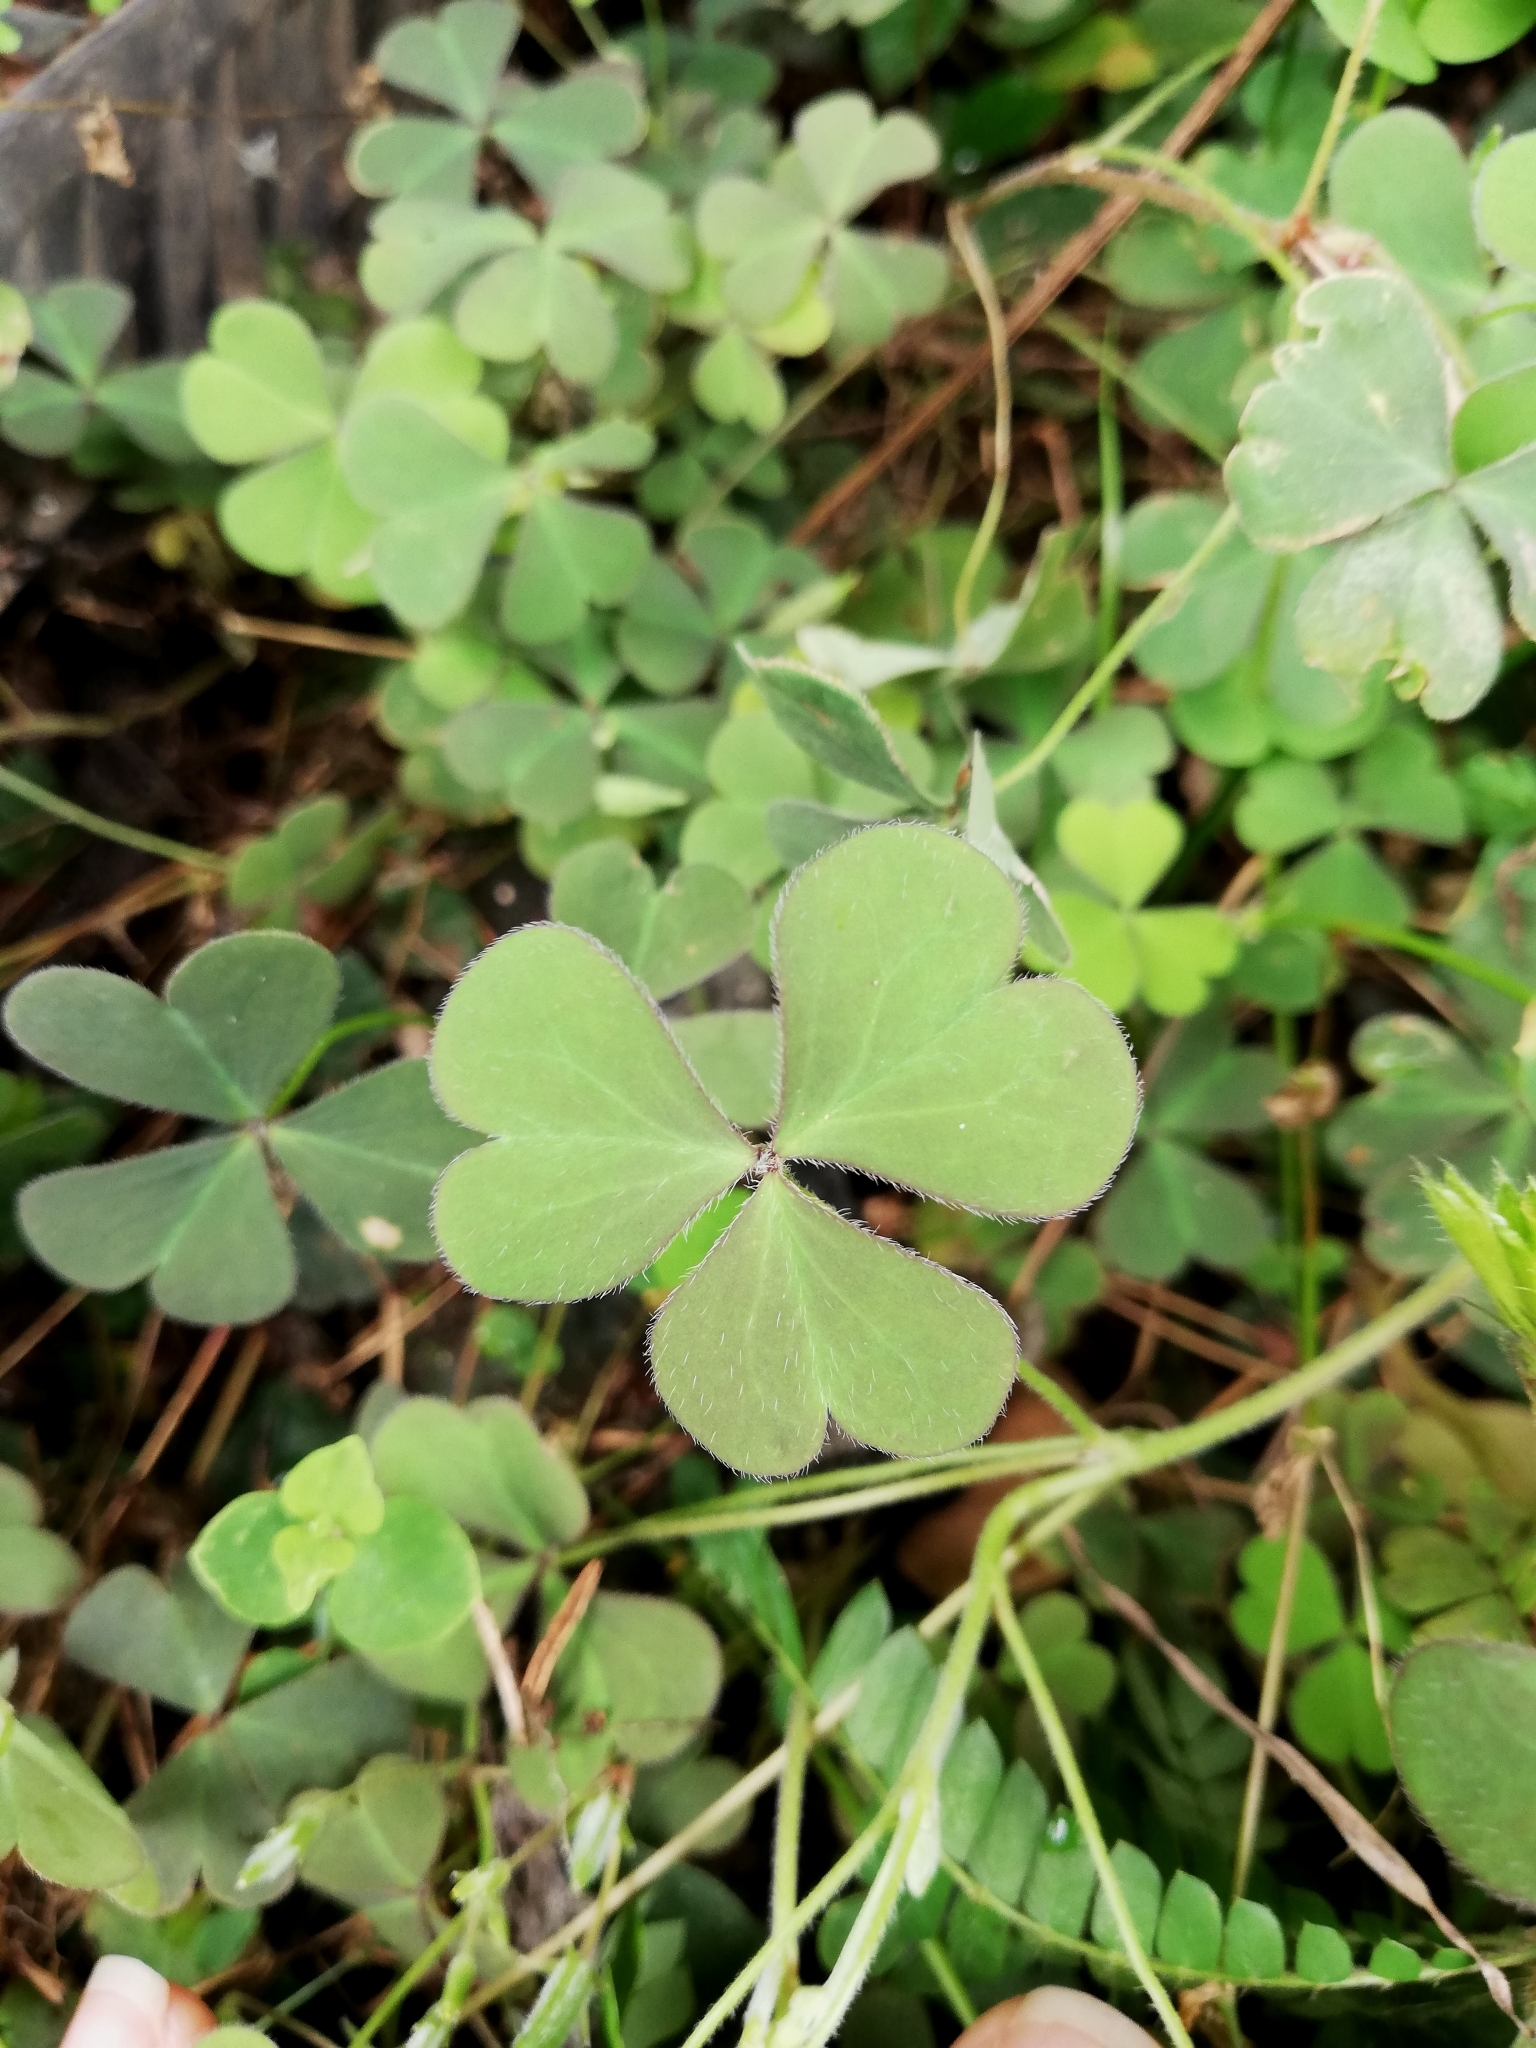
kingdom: Plantae
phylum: Tracheophyta
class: Magnoliopsida
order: Oxalidales
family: Oxalidaceae
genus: Oxalis
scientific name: Oxalis corniculata
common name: Procumbent yellow-sorrel
